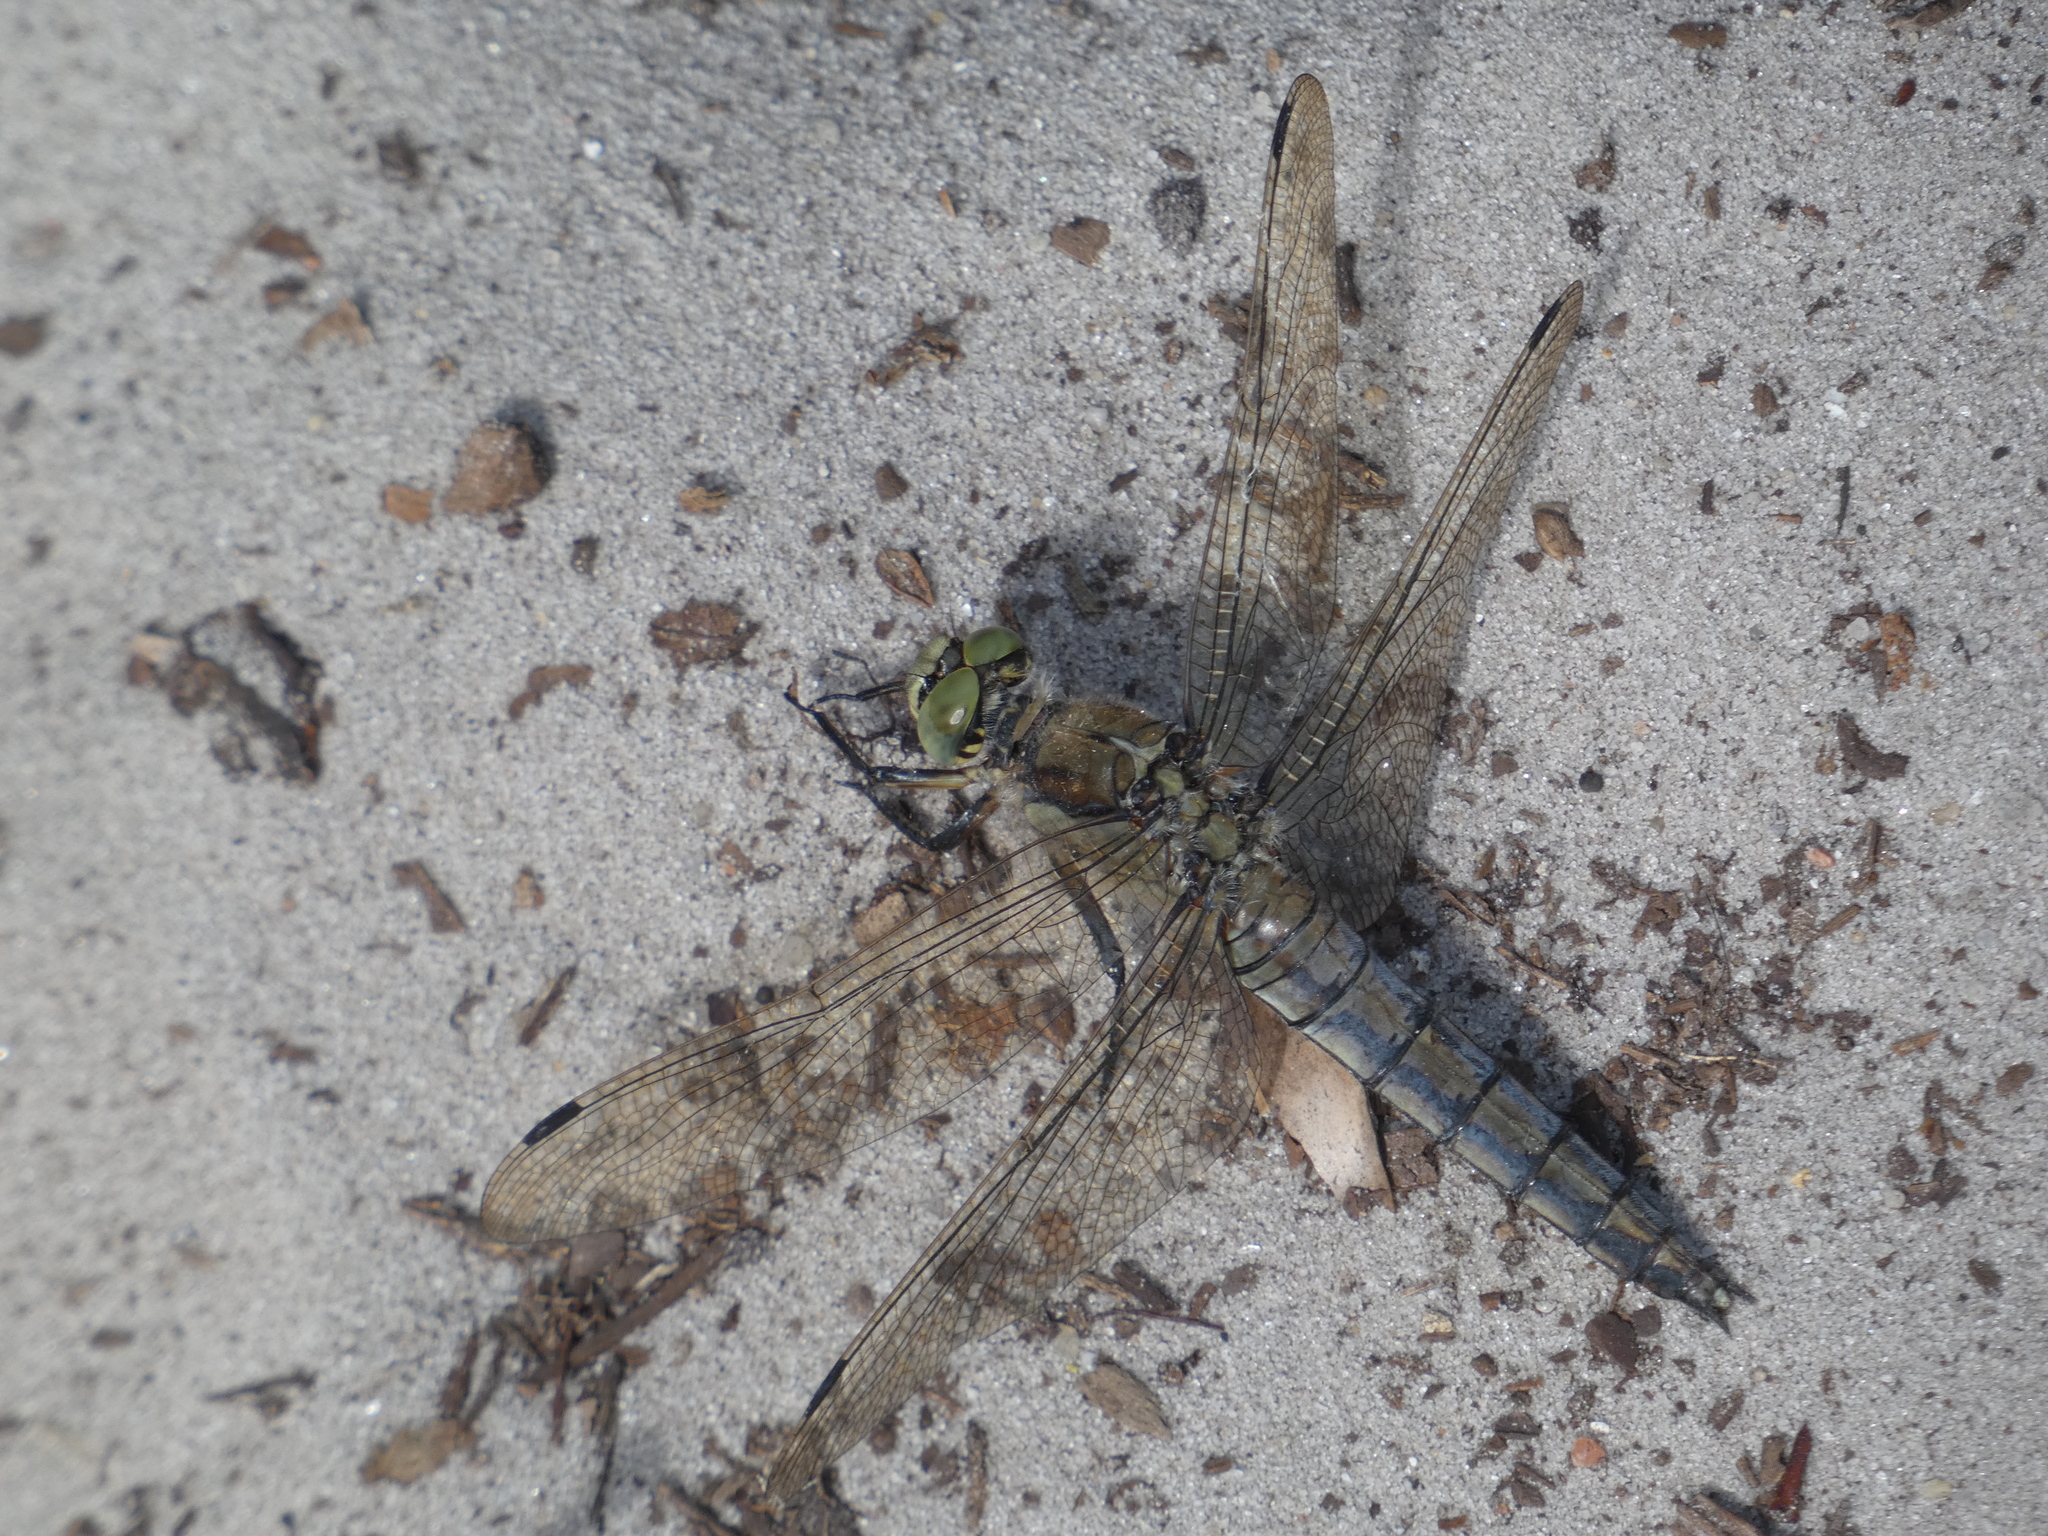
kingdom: Animalia
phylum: Arthropoda
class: Insecta
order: Odonata
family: Libellulidae
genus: Orthetrum
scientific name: Orthetrum cancellatum
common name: Black-tailed skimmer
